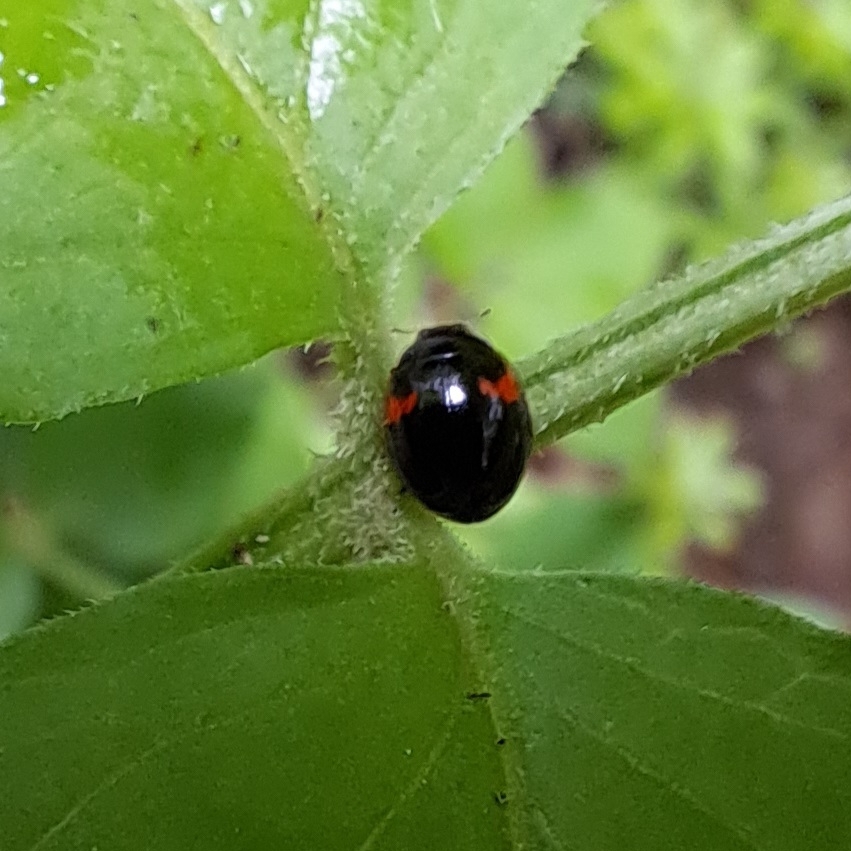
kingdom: Animalia
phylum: Arthropoda
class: Insecta
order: Coleoptera
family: Coccinellidae
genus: Adalia
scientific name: Adalia decempunctata
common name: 10-spot ladybird
